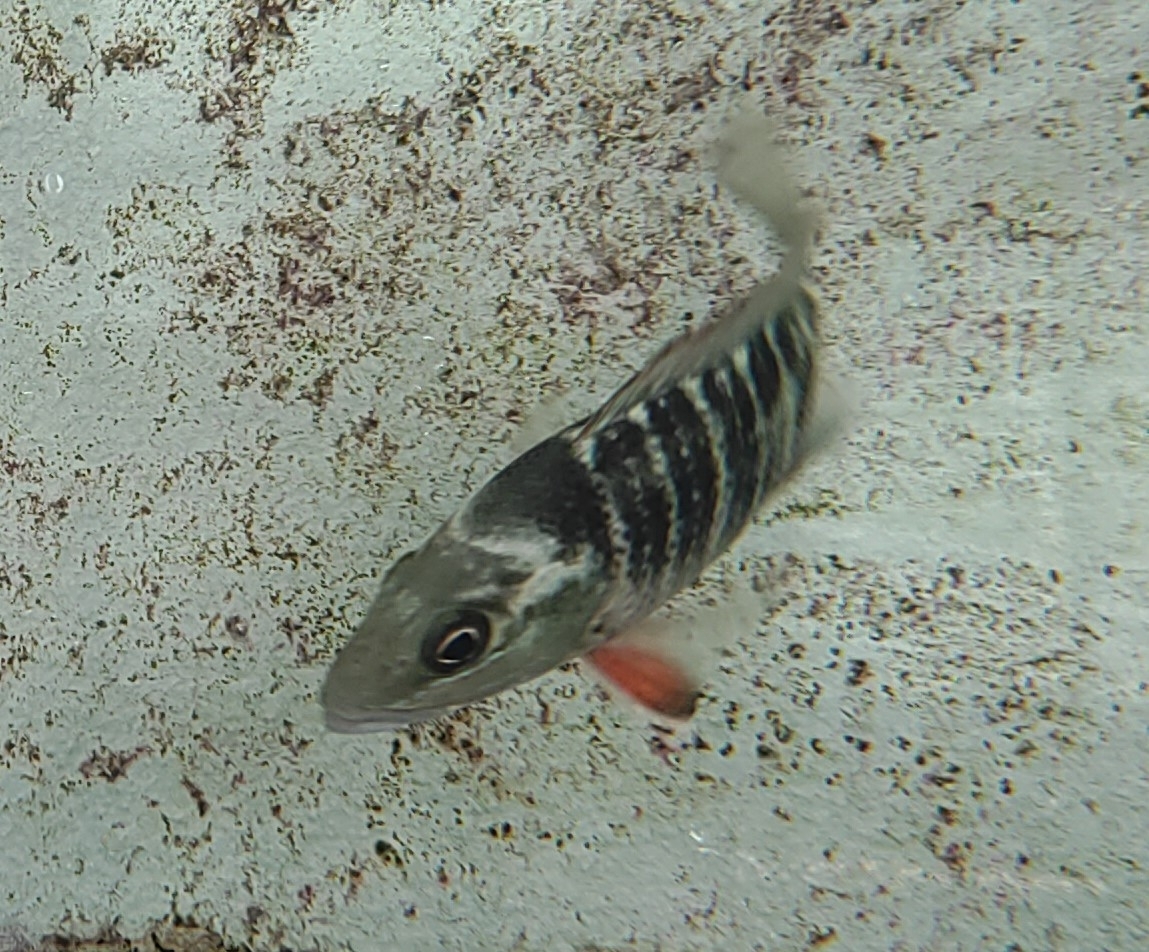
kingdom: Animalia
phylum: Chordata
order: Perciformes
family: Lutjanidae
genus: Lutjanus
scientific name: Lutjanus argentimaculatus
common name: Mangrove red snapper
